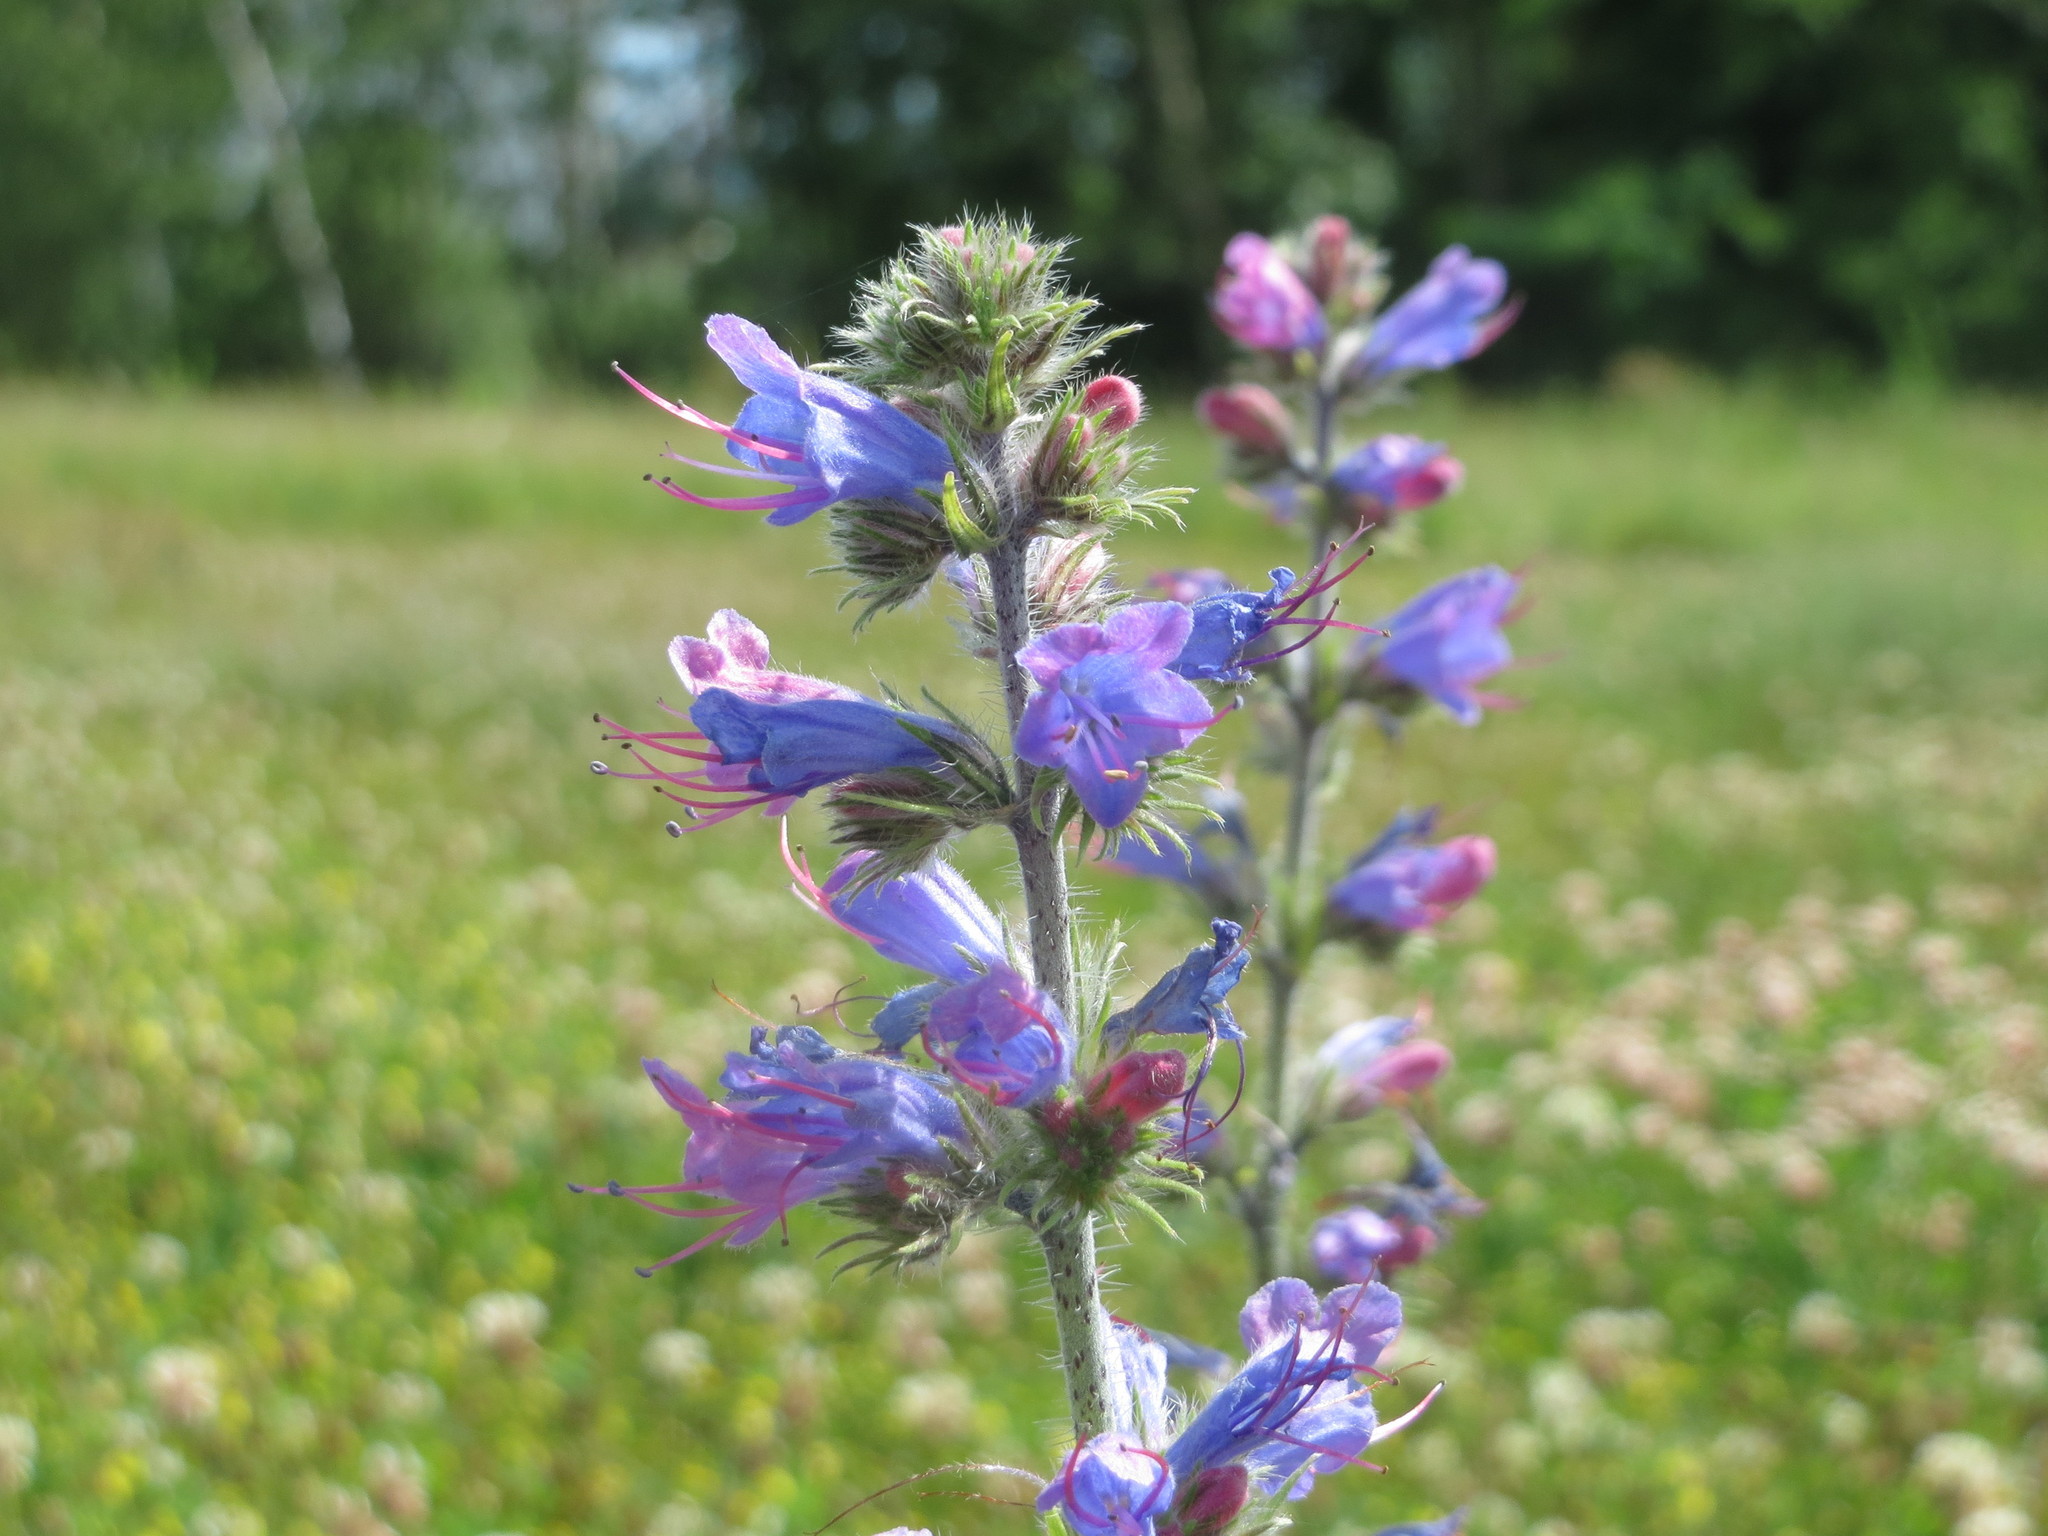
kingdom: Plantae
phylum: Tracheophyta
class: Magnoliopsida
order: Boraginales
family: Boraginaceae
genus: Echium
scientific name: Echium vulgare
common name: Common viper's bugloss
